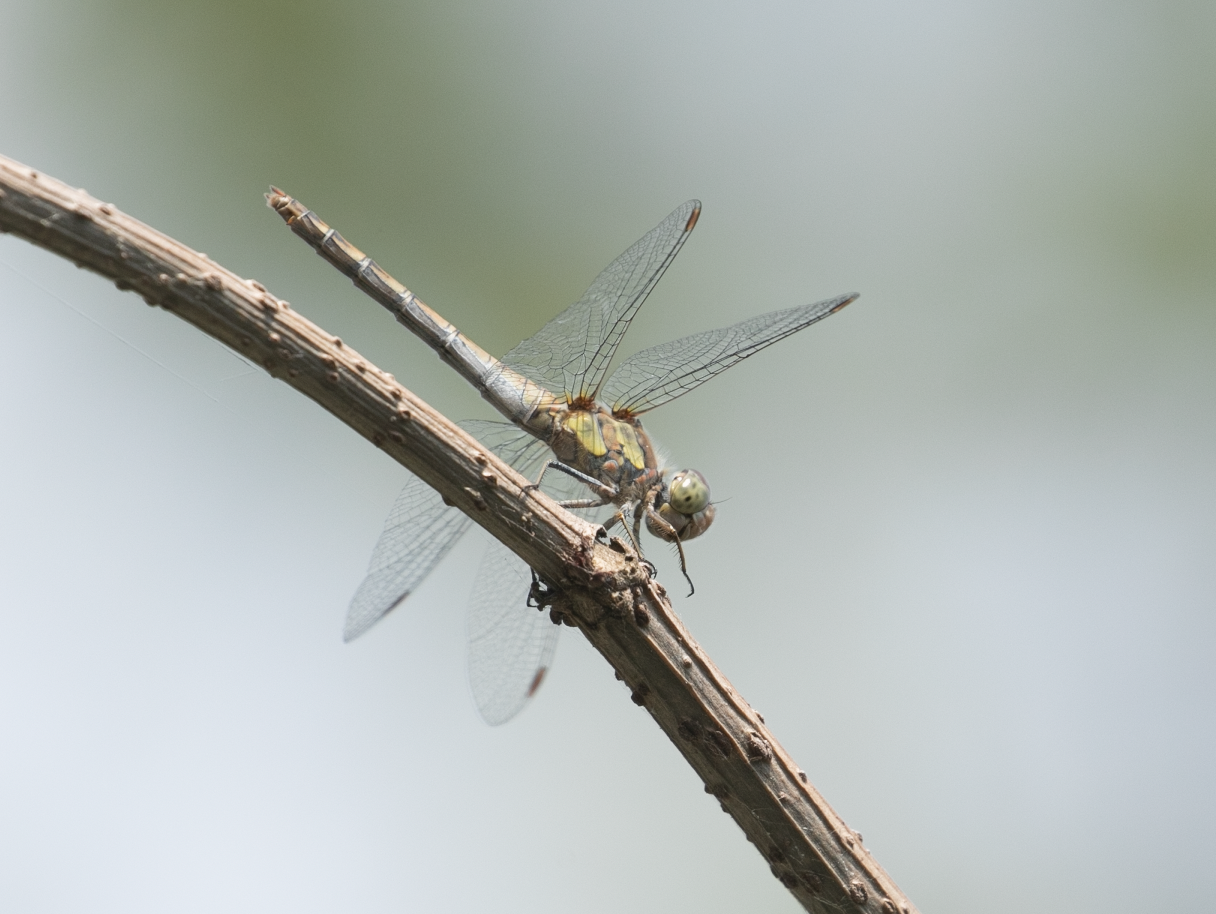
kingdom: Animalia
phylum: Arthropoda
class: Insecta
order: Odonata
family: Libellulidae
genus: Sympetrum
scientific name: Sympetrum striolatum
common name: Common darter
